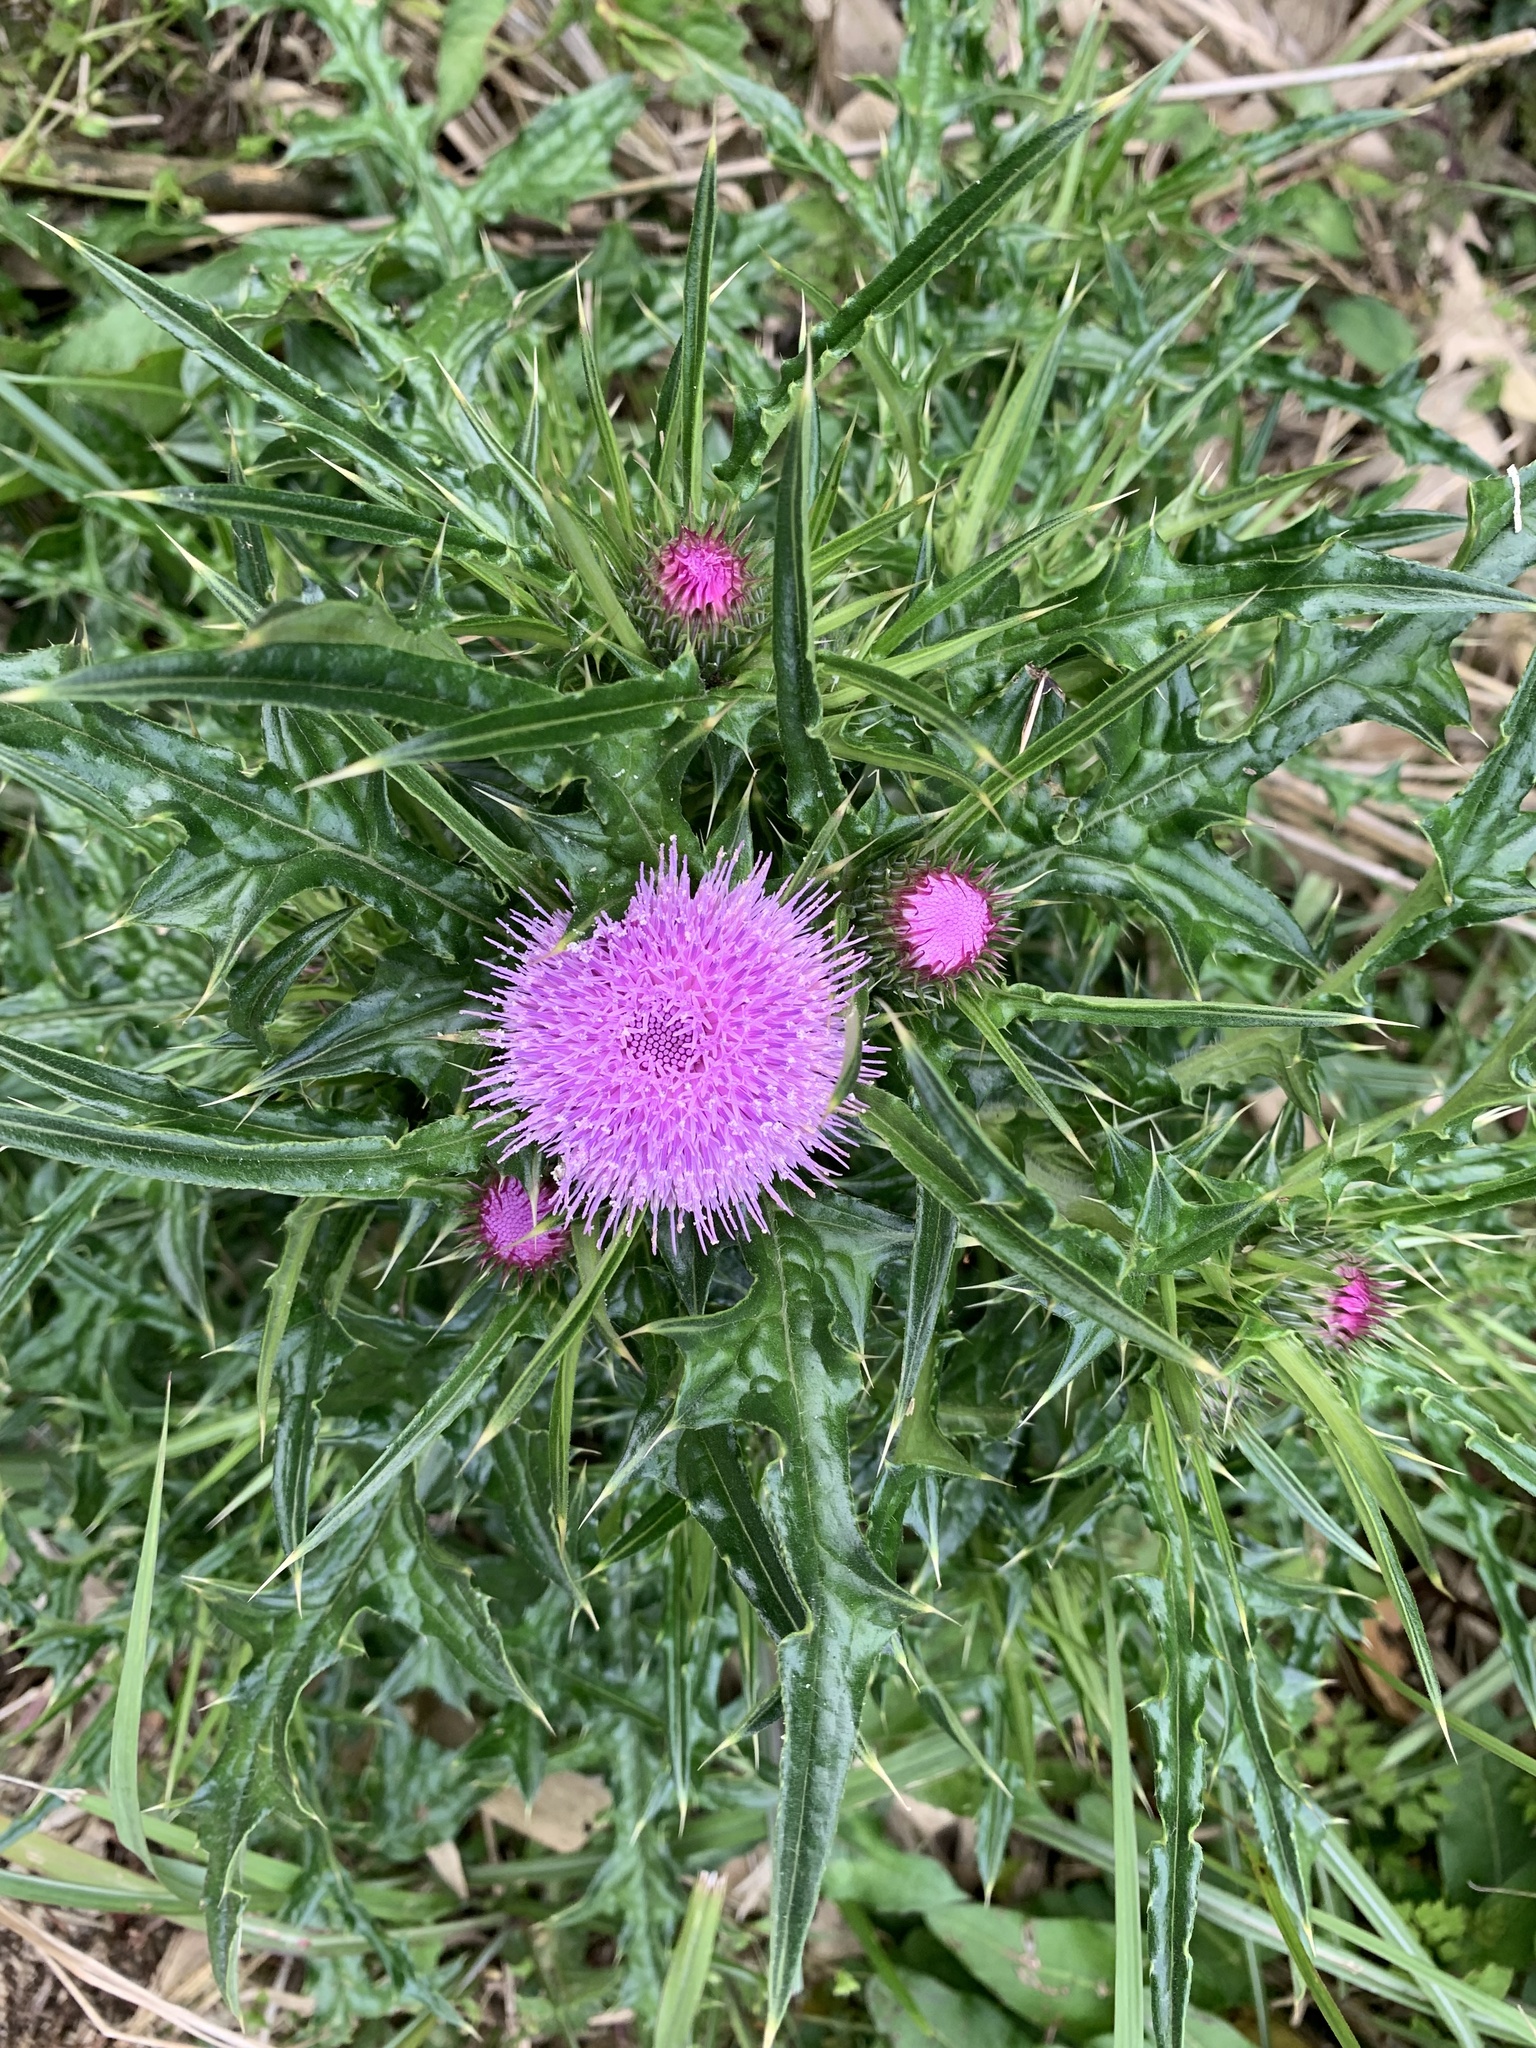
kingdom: Plantae
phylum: Tracheophyta
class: Magnoliopsida
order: Asterales
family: Asteraceae
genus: Cirsium
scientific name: Cirsium japonicum
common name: Japanese thistle
